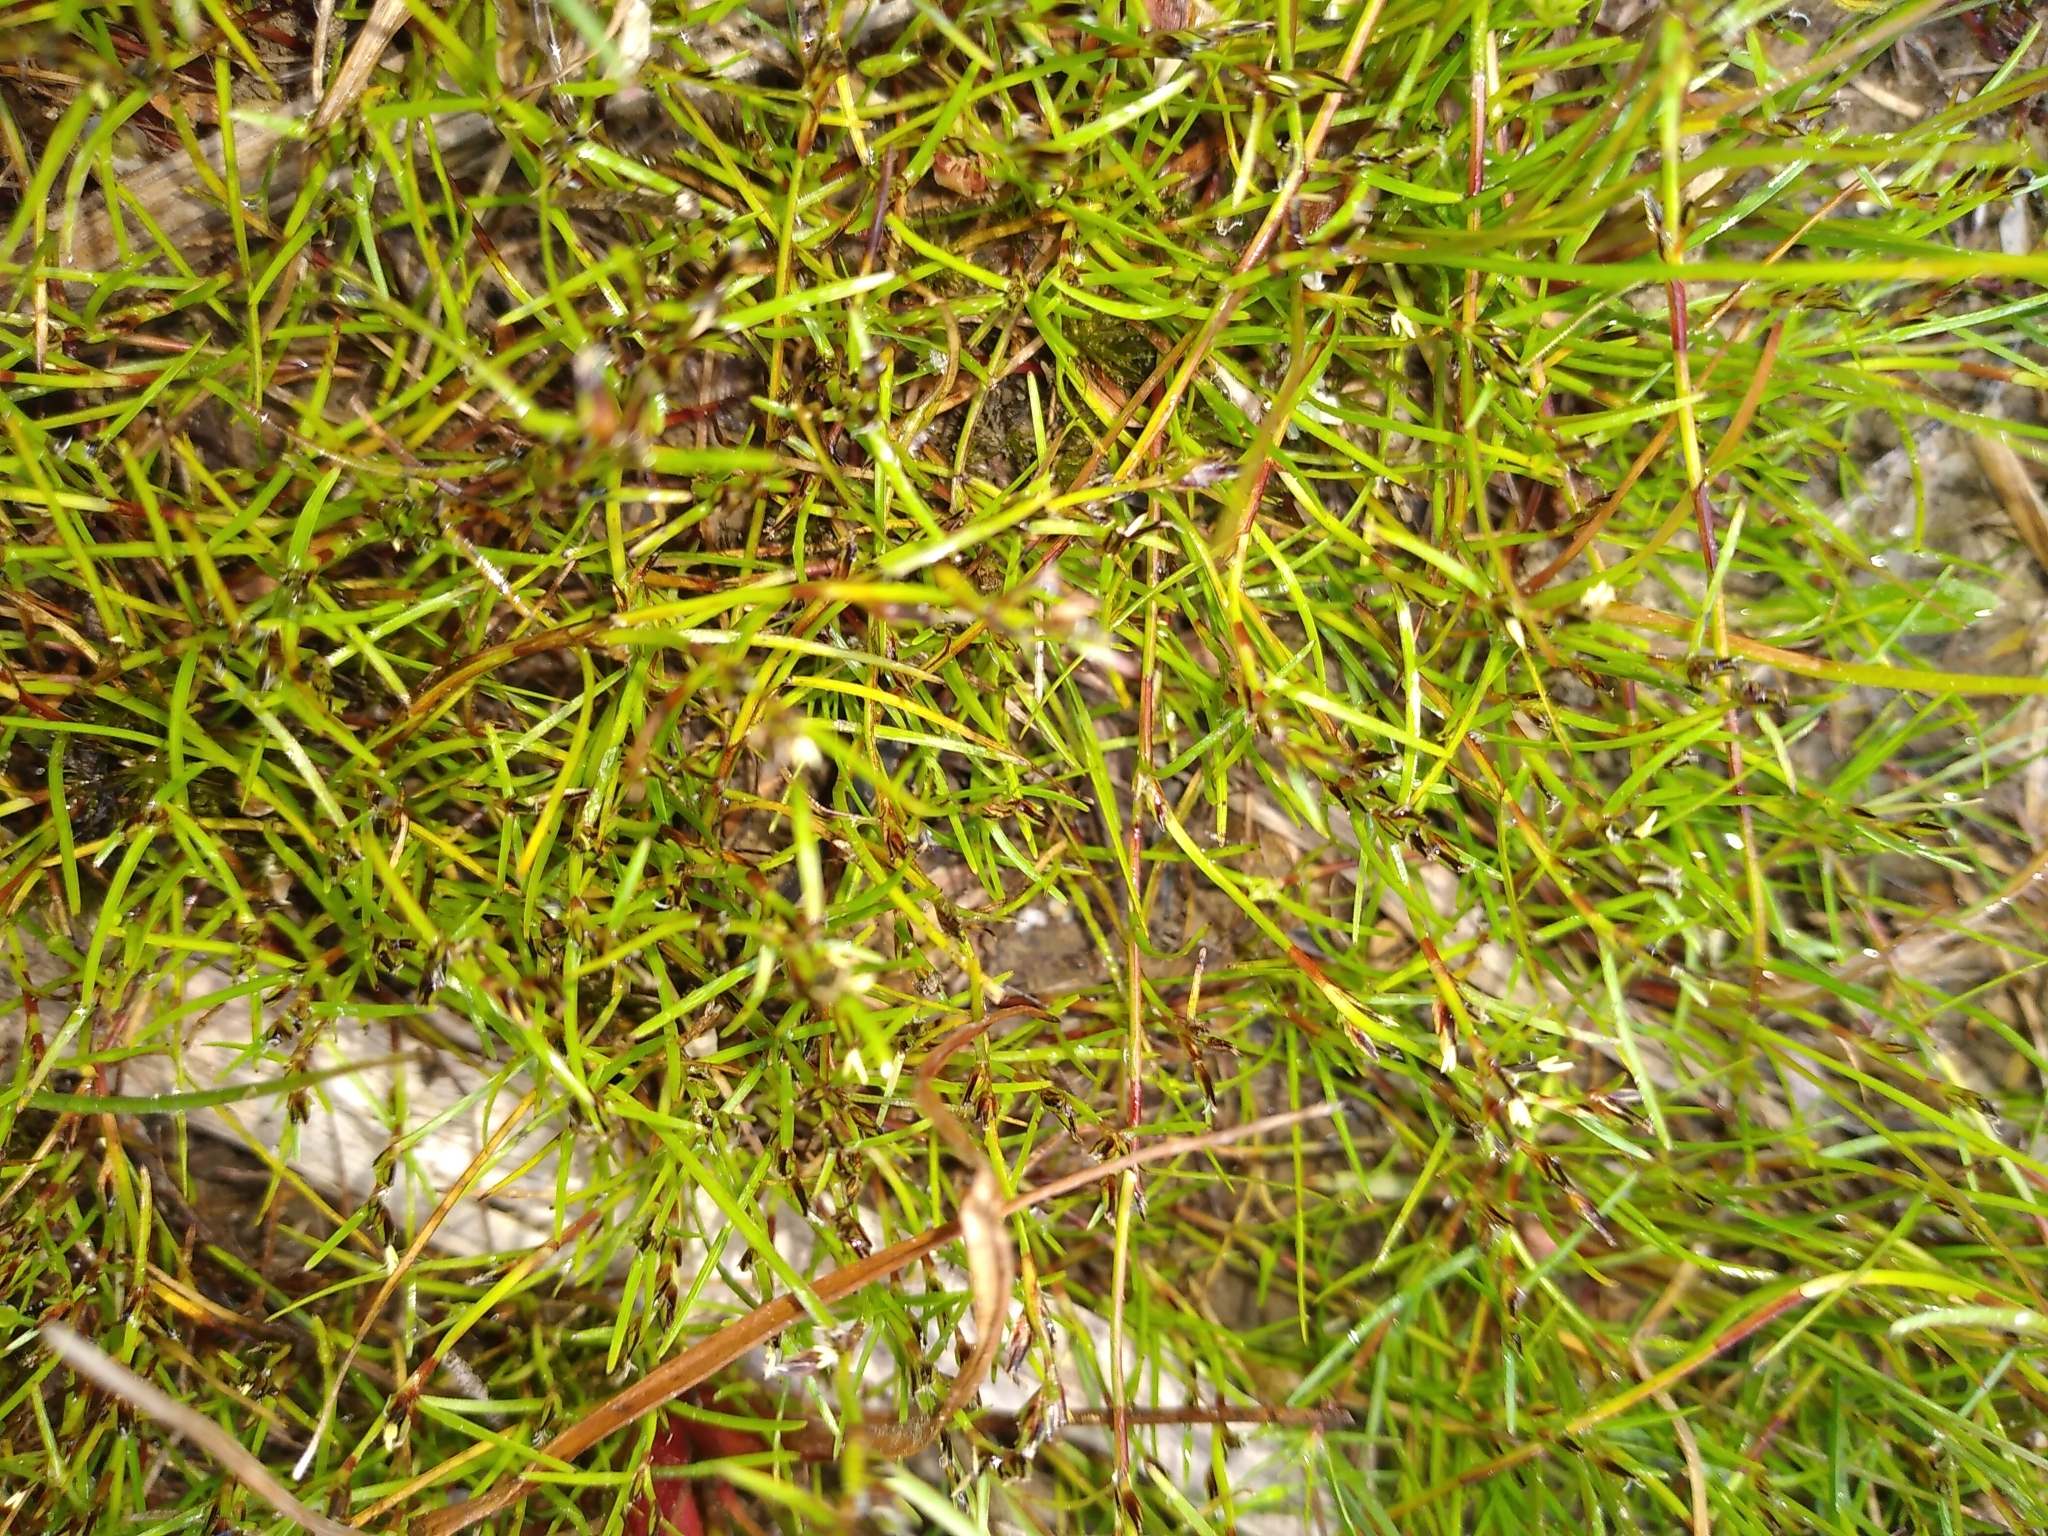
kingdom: Plantae
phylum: Tracheophyta
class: Liliopsida
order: Poales
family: Cyperaceae
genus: Schoenus
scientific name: Schoenus maschalinus
